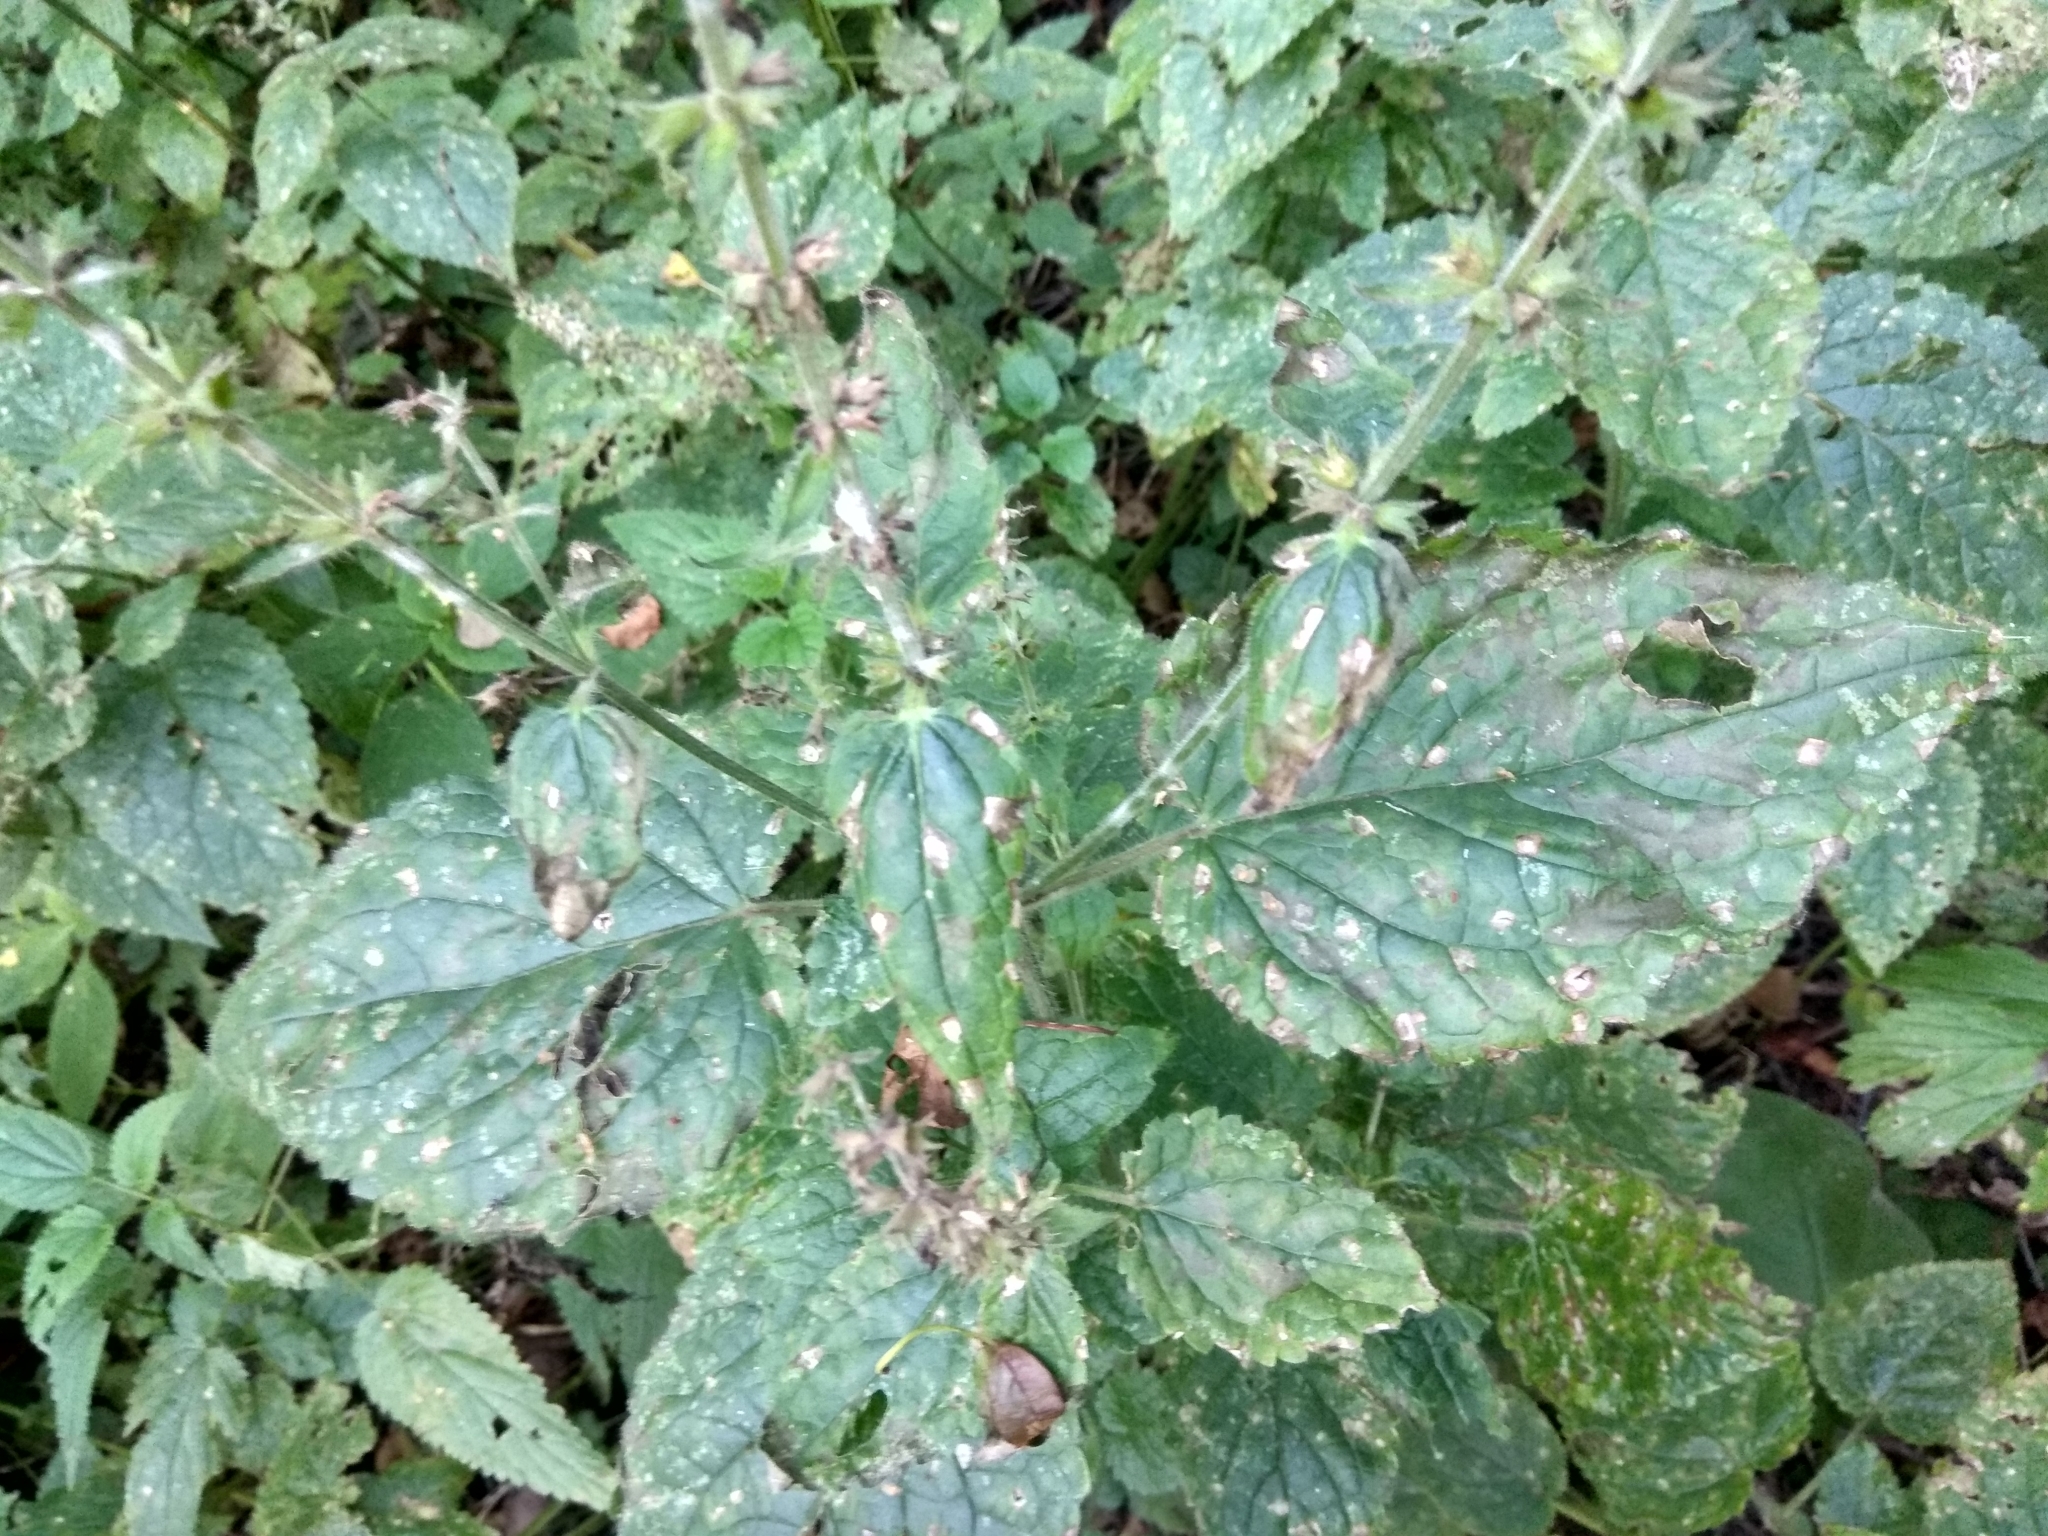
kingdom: Plantae
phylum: Tracheophyta
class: Magnoliopsida
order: Lamiales
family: Lamiaceae
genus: Stachys
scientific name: Stachys sylvatica
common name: Hedge woundwort
